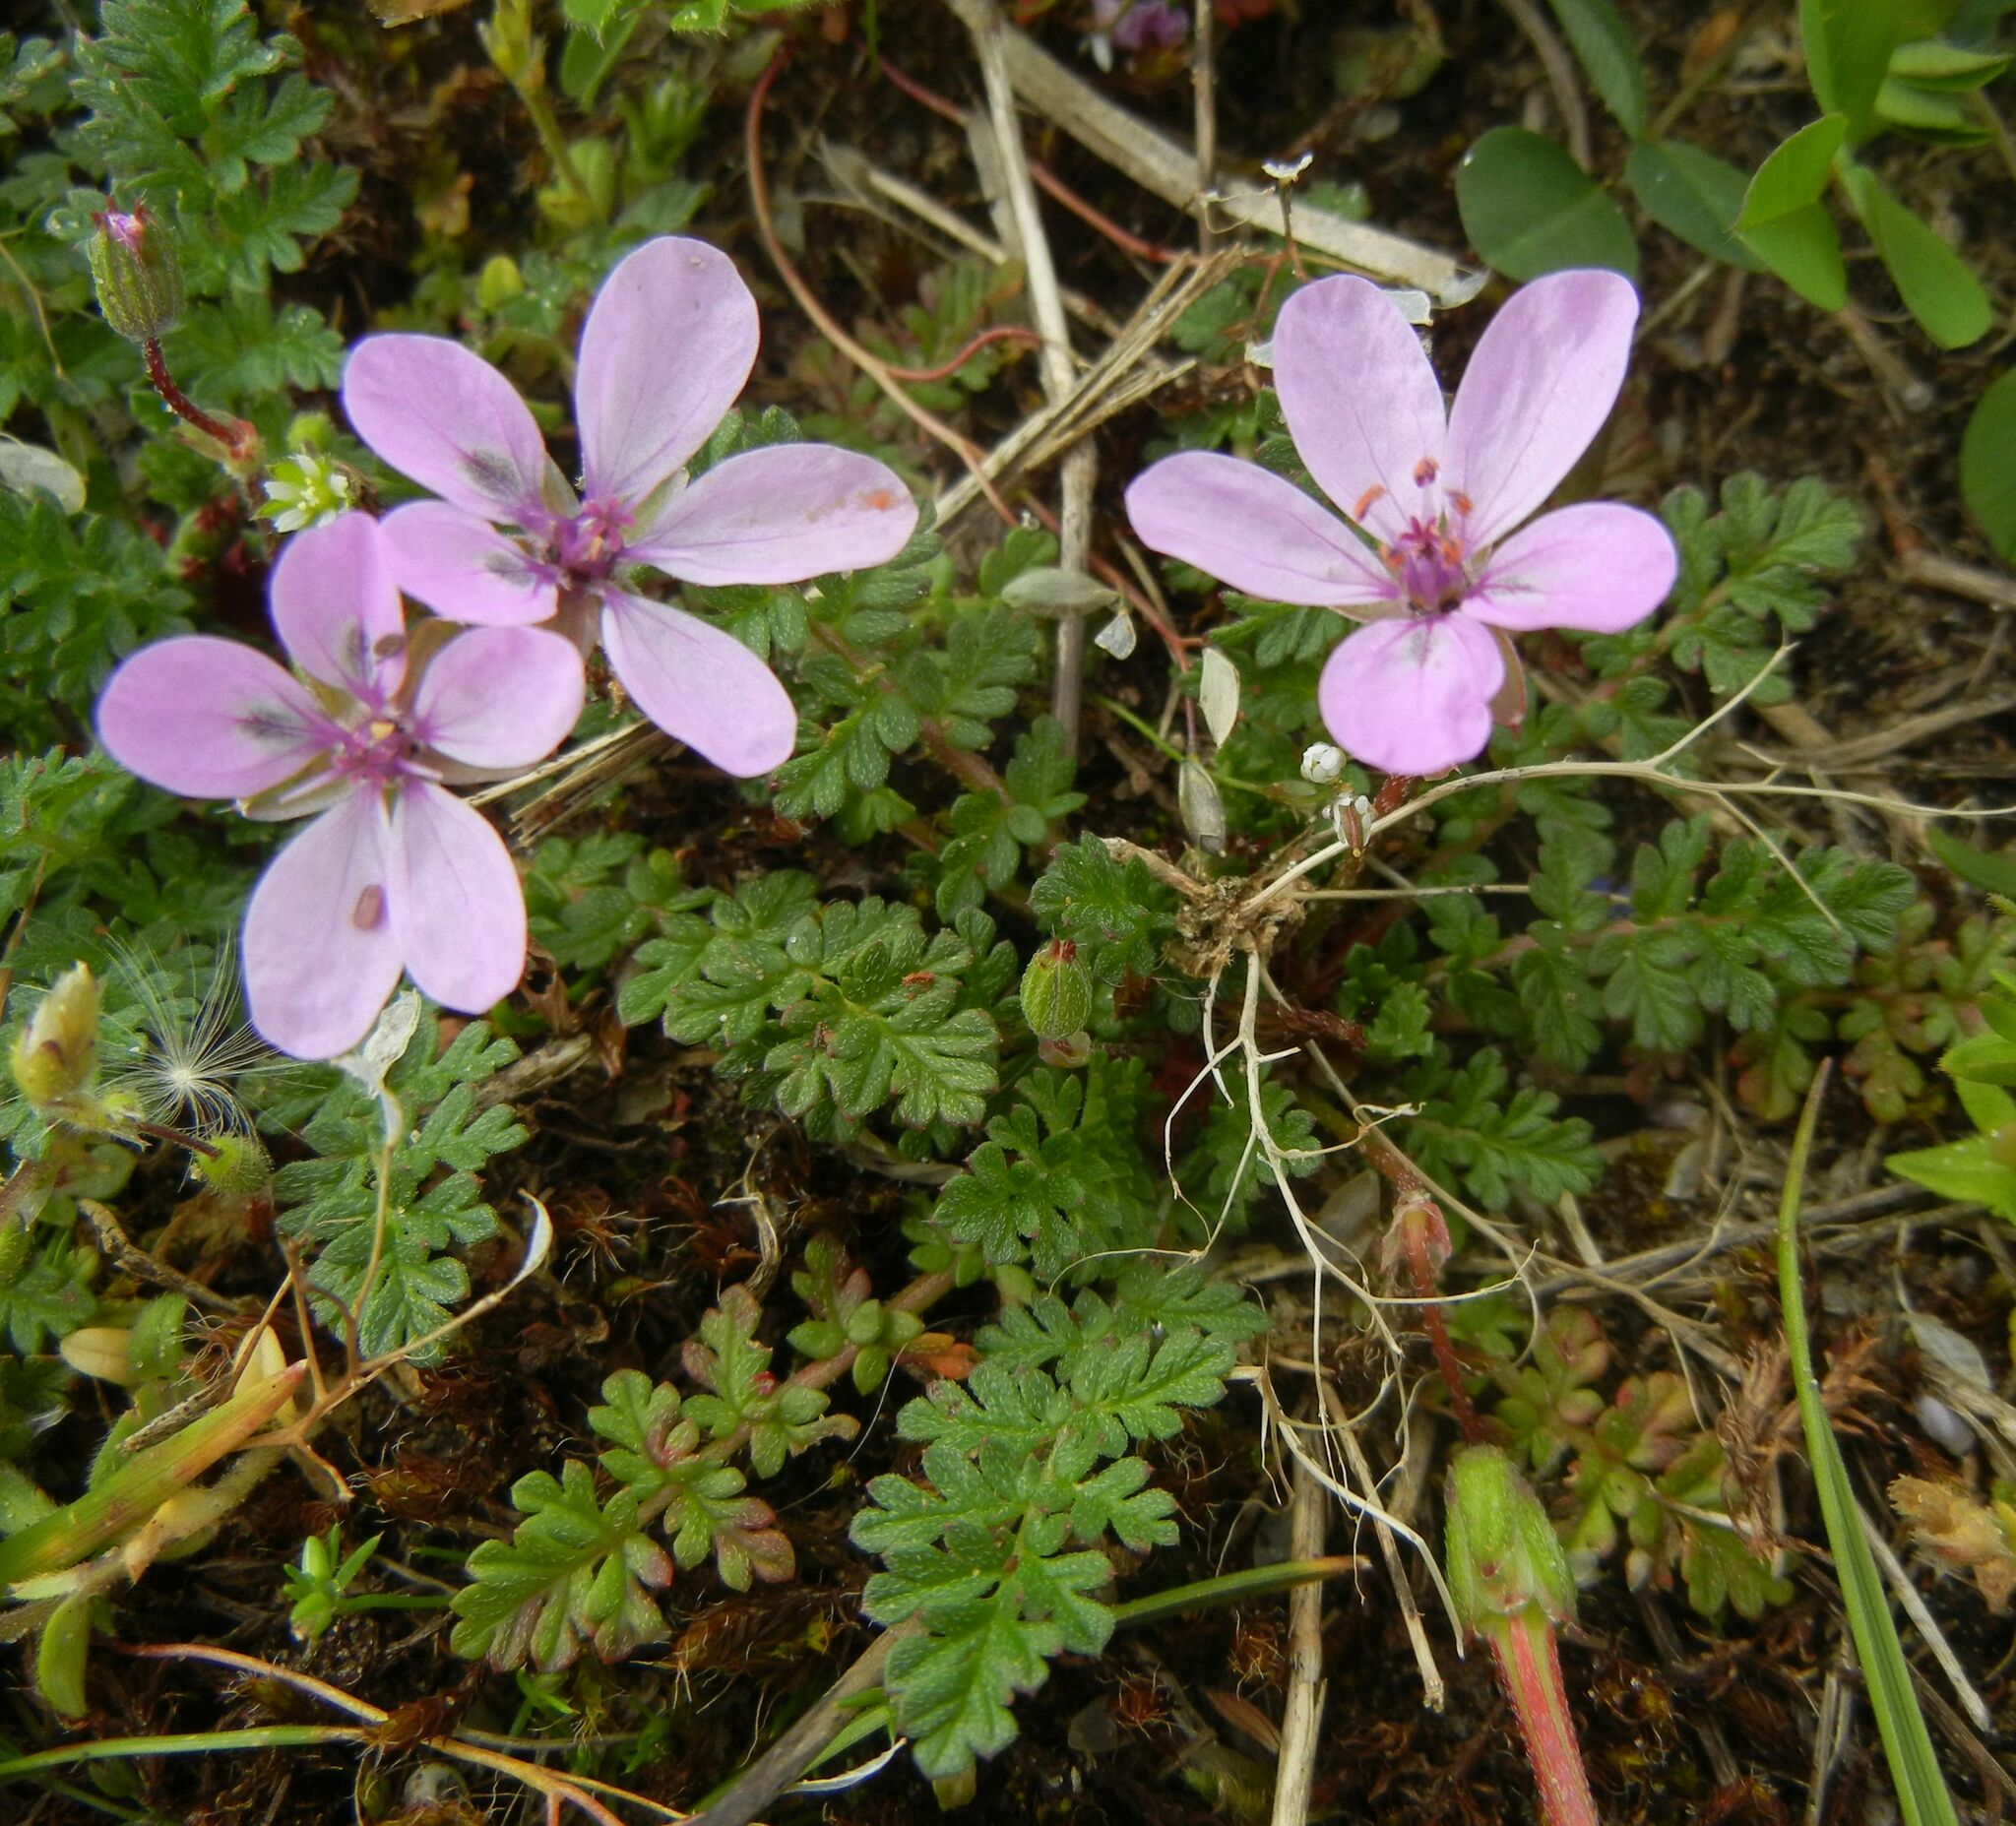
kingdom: Plantae
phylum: Tracheophyta
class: Magnoliopsida
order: Geraniales
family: Geraniaceae
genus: Erodium
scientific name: Erodium cicutarium
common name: Common stork's-bill
